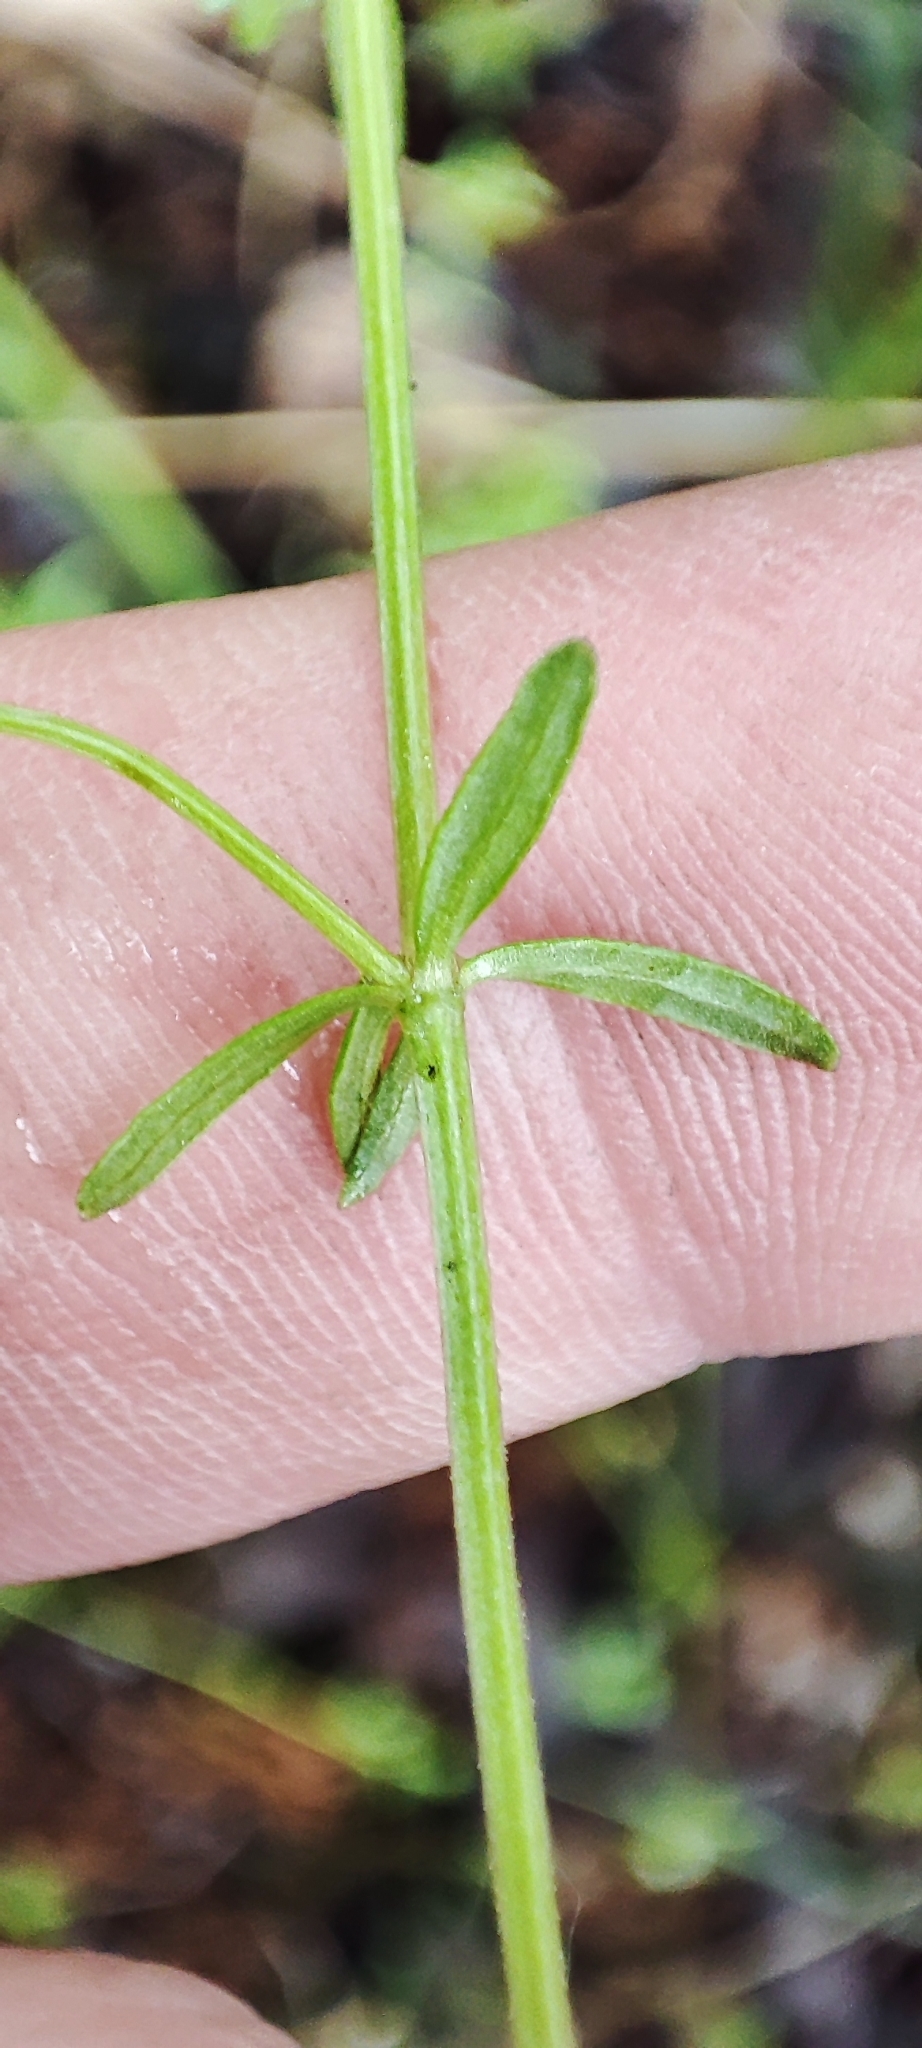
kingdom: Plantae
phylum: Tracheophyta
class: Magnoliopsida
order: Gentianales
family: Rubiaceae
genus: Galium
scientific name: Galium palustre
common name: Common marsh-bedstraw
